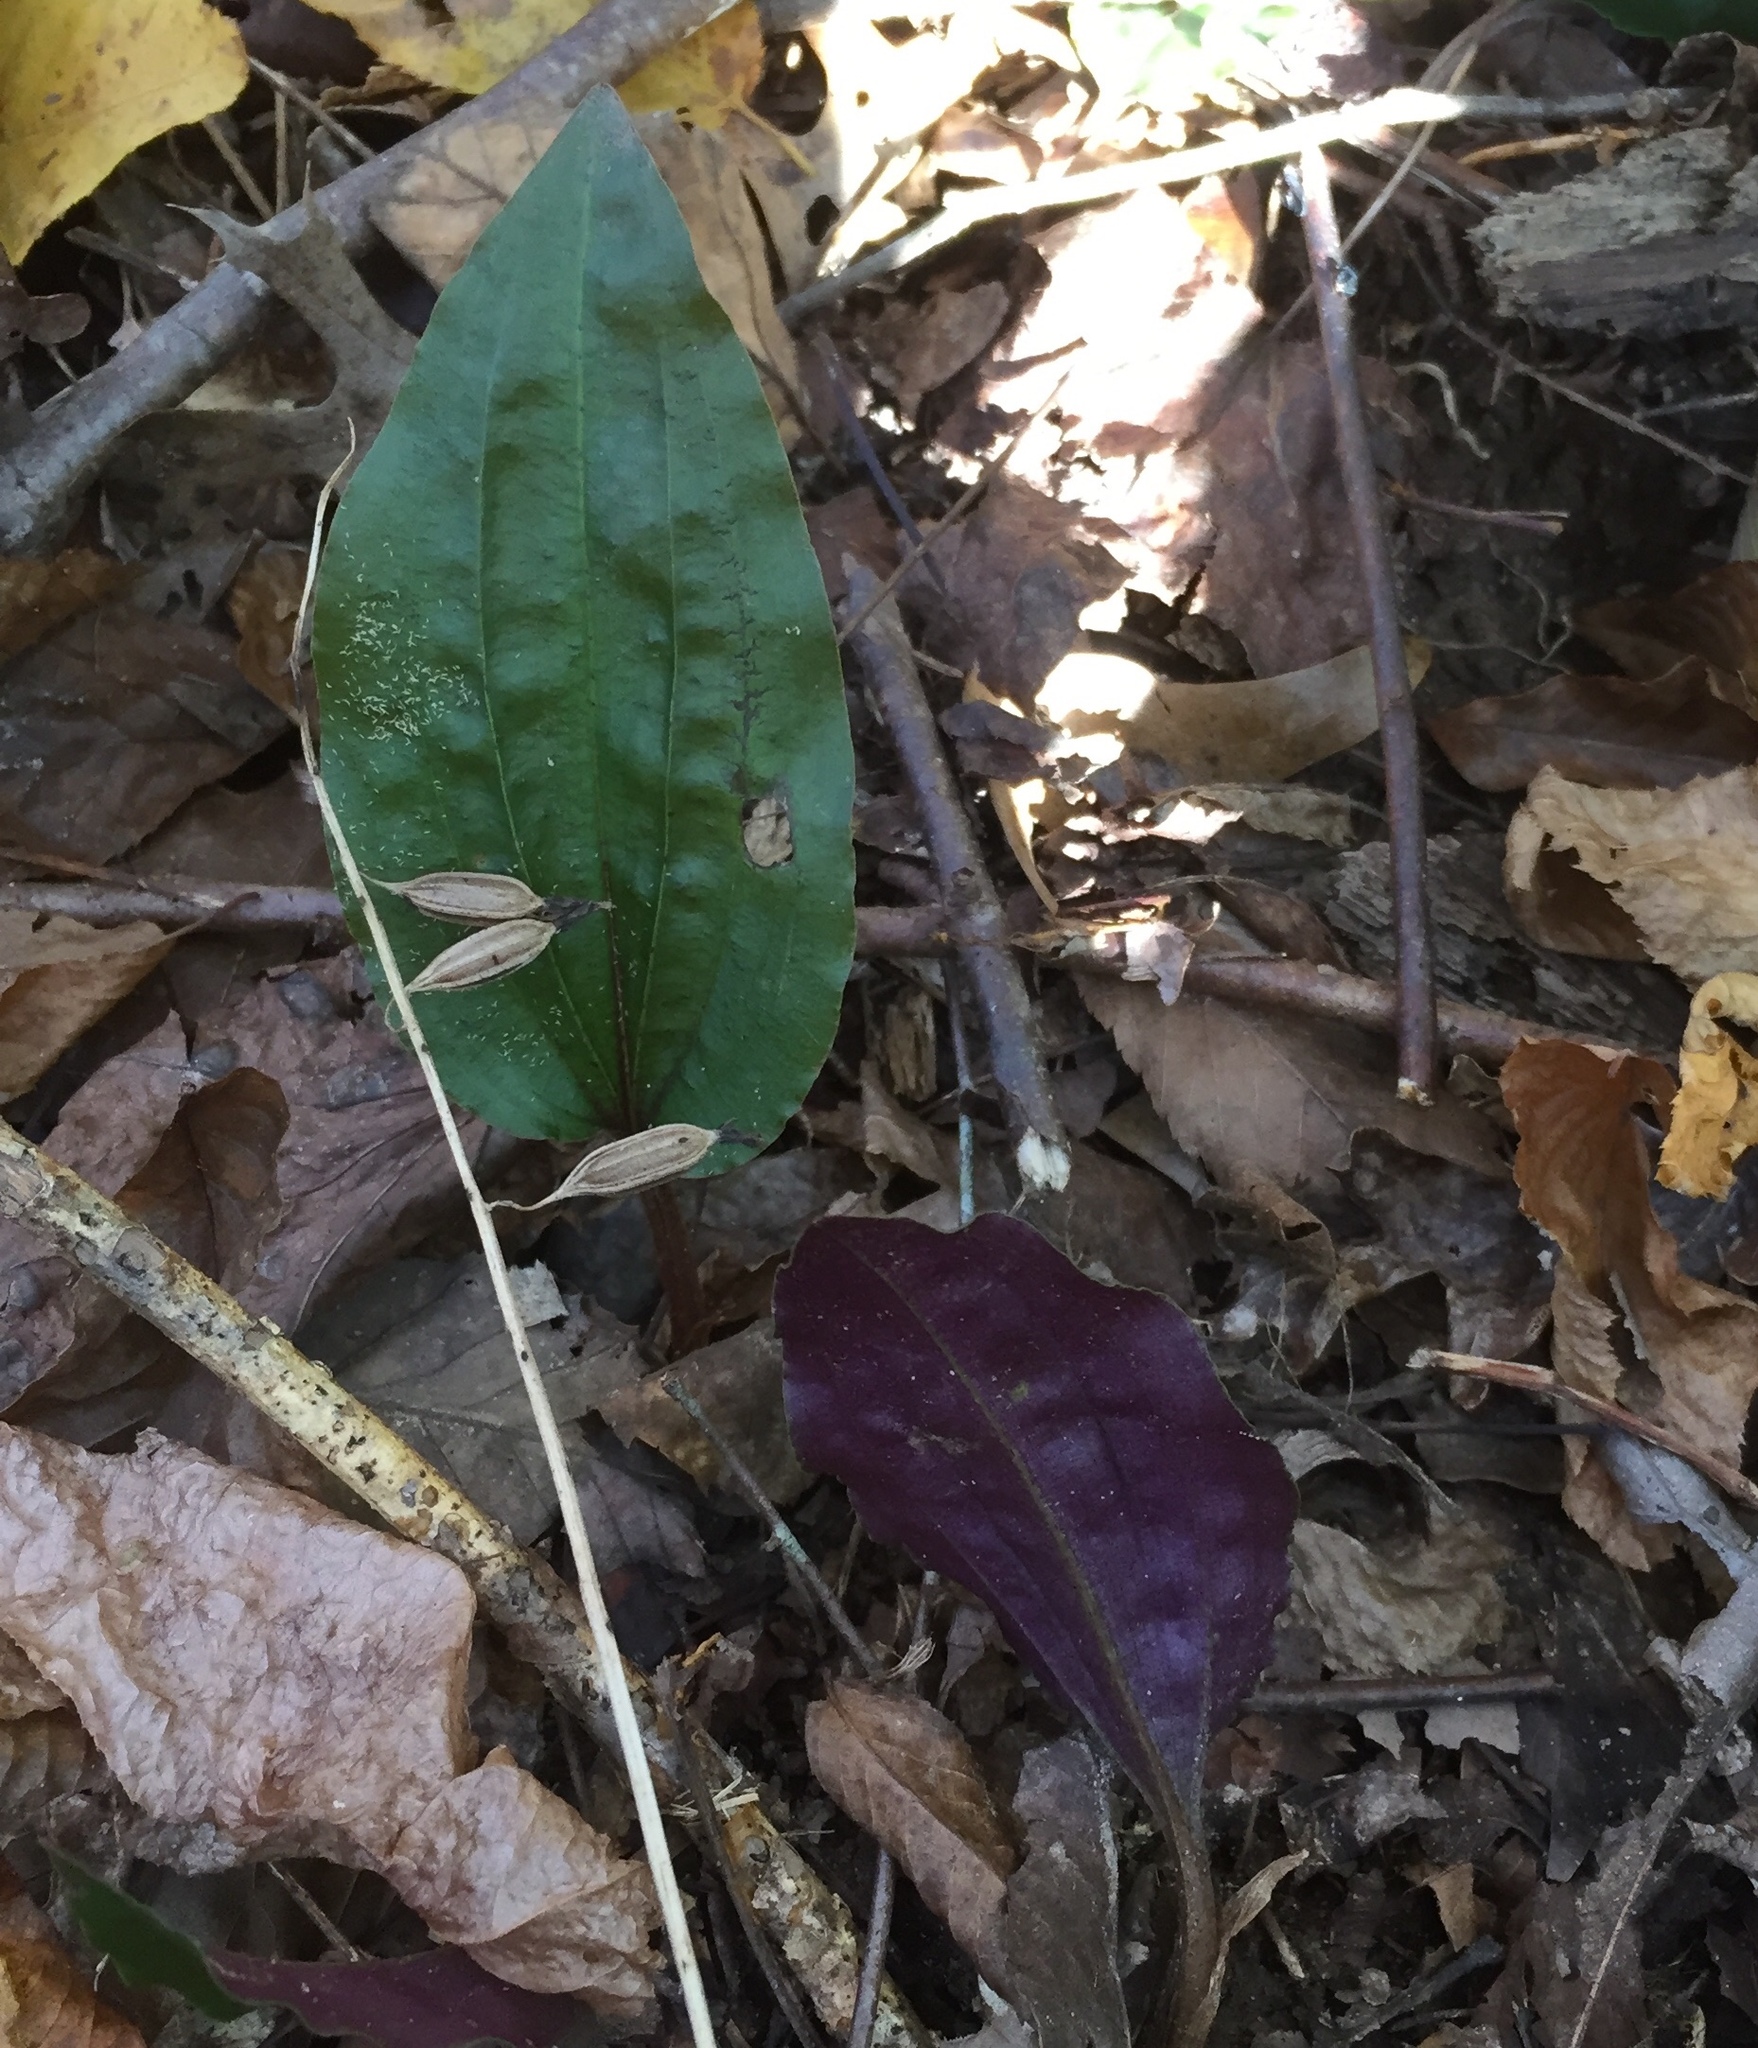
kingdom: Plantae
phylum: Tracheophyta
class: Liliopsida
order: Asparagales
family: Orchidaceae
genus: Tipularia
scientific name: Tipularia discolor
